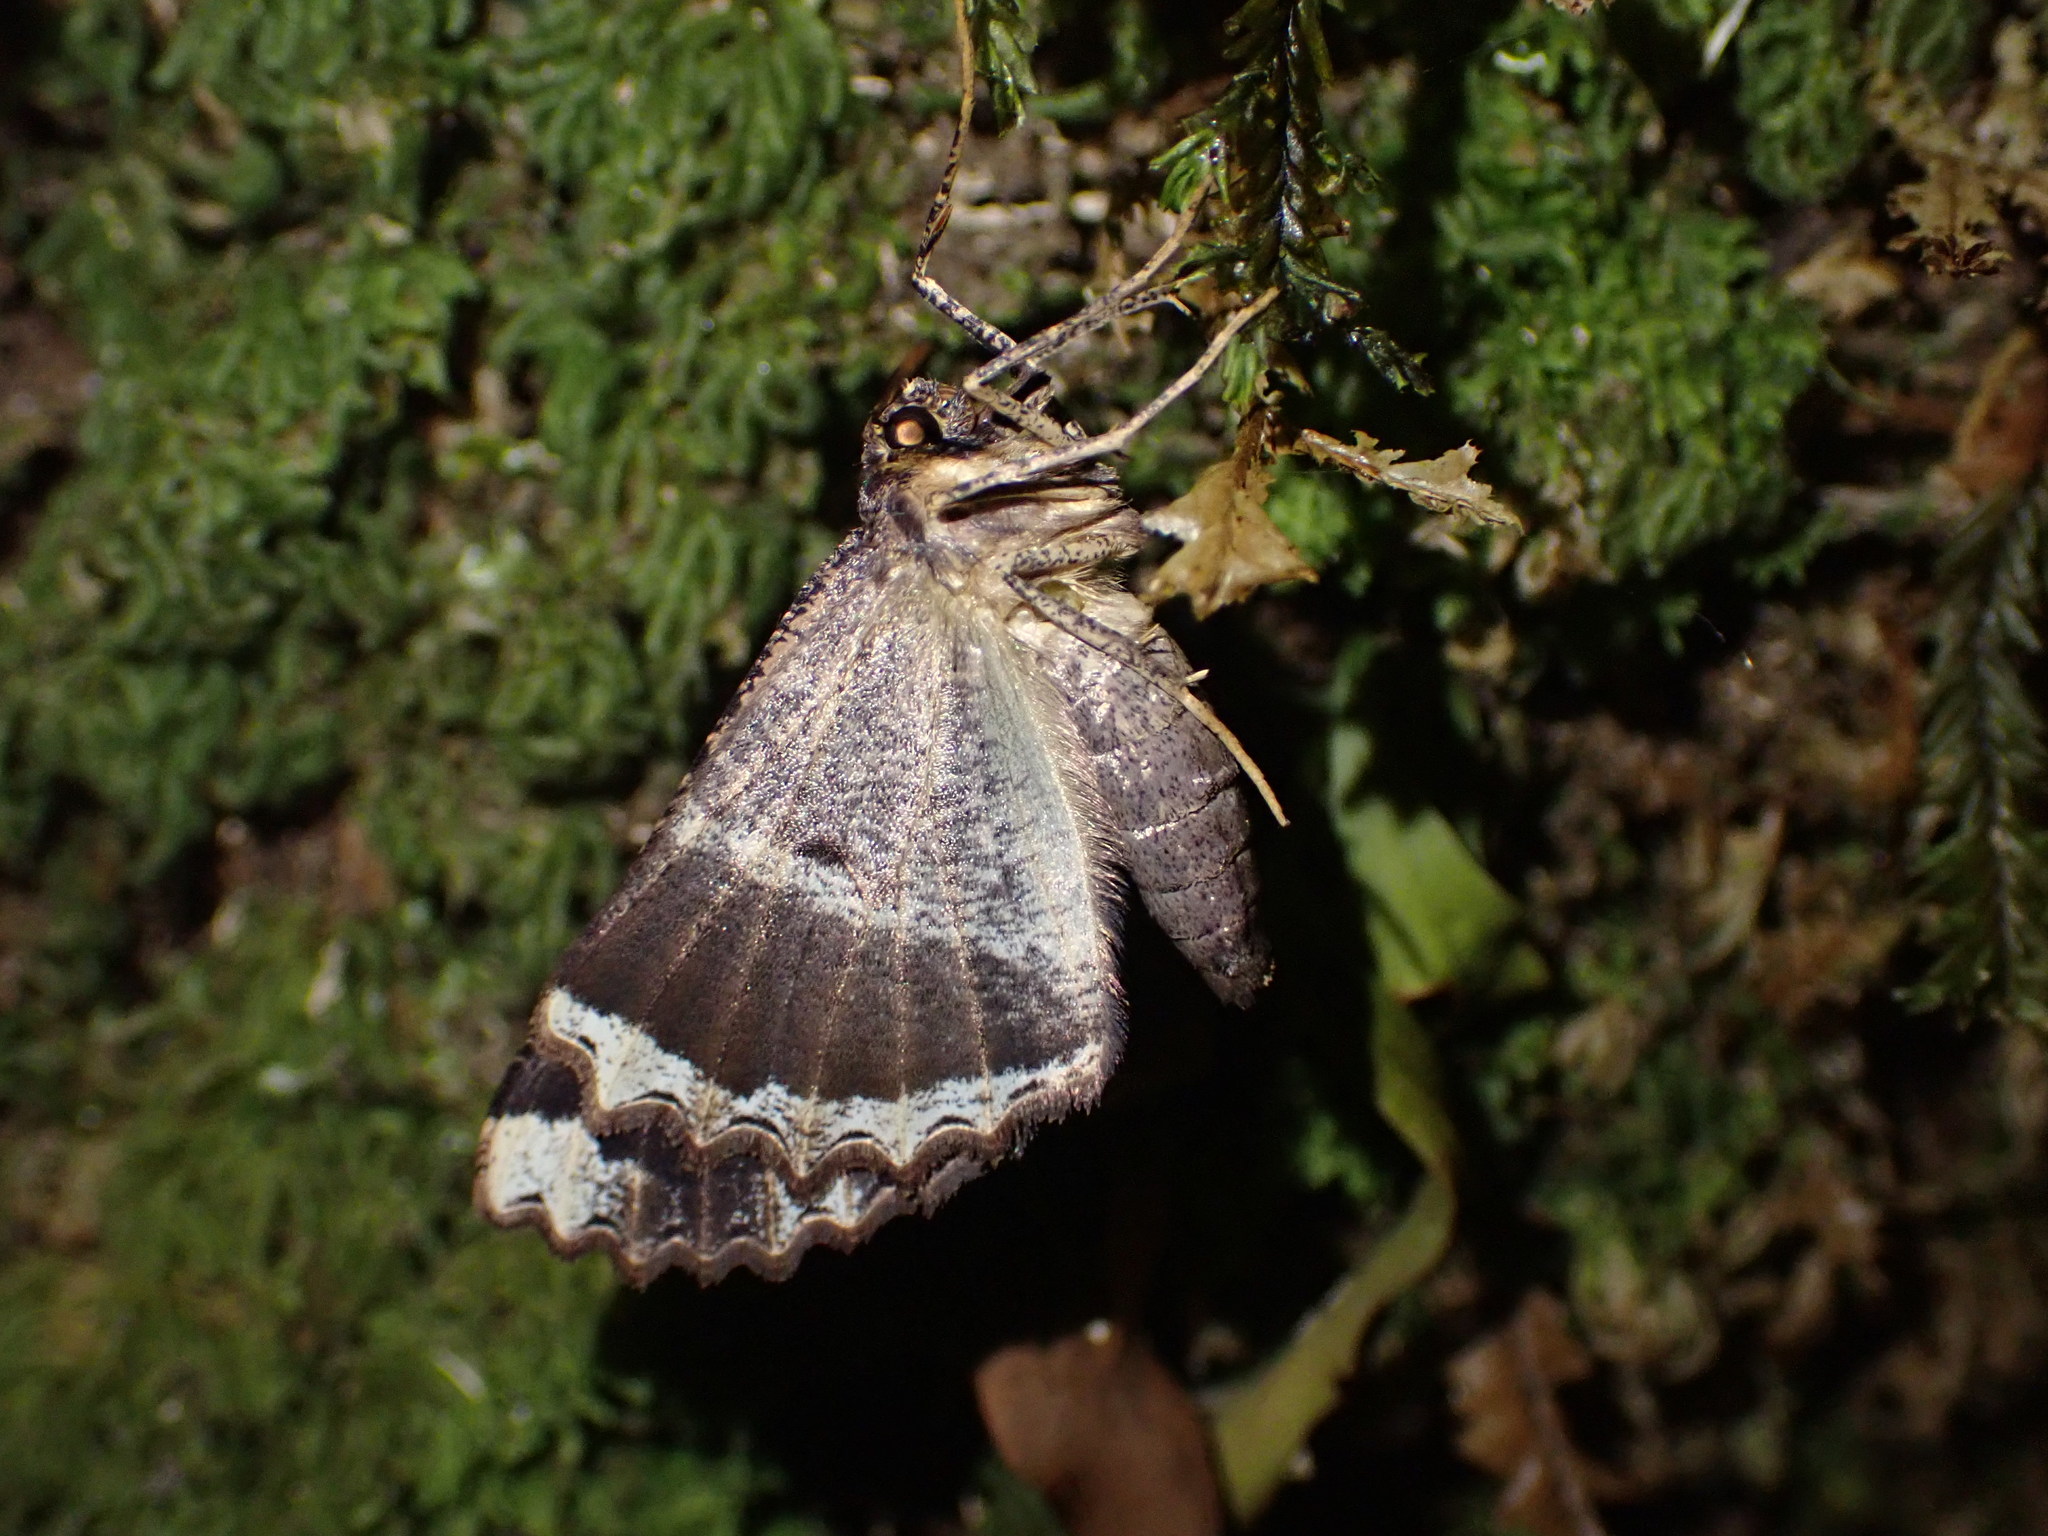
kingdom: Animalia
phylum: Arthropoda
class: Insecta
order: Lepidoptera
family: Geometridae
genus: Gellonia
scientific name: Gellonia dejectaria
